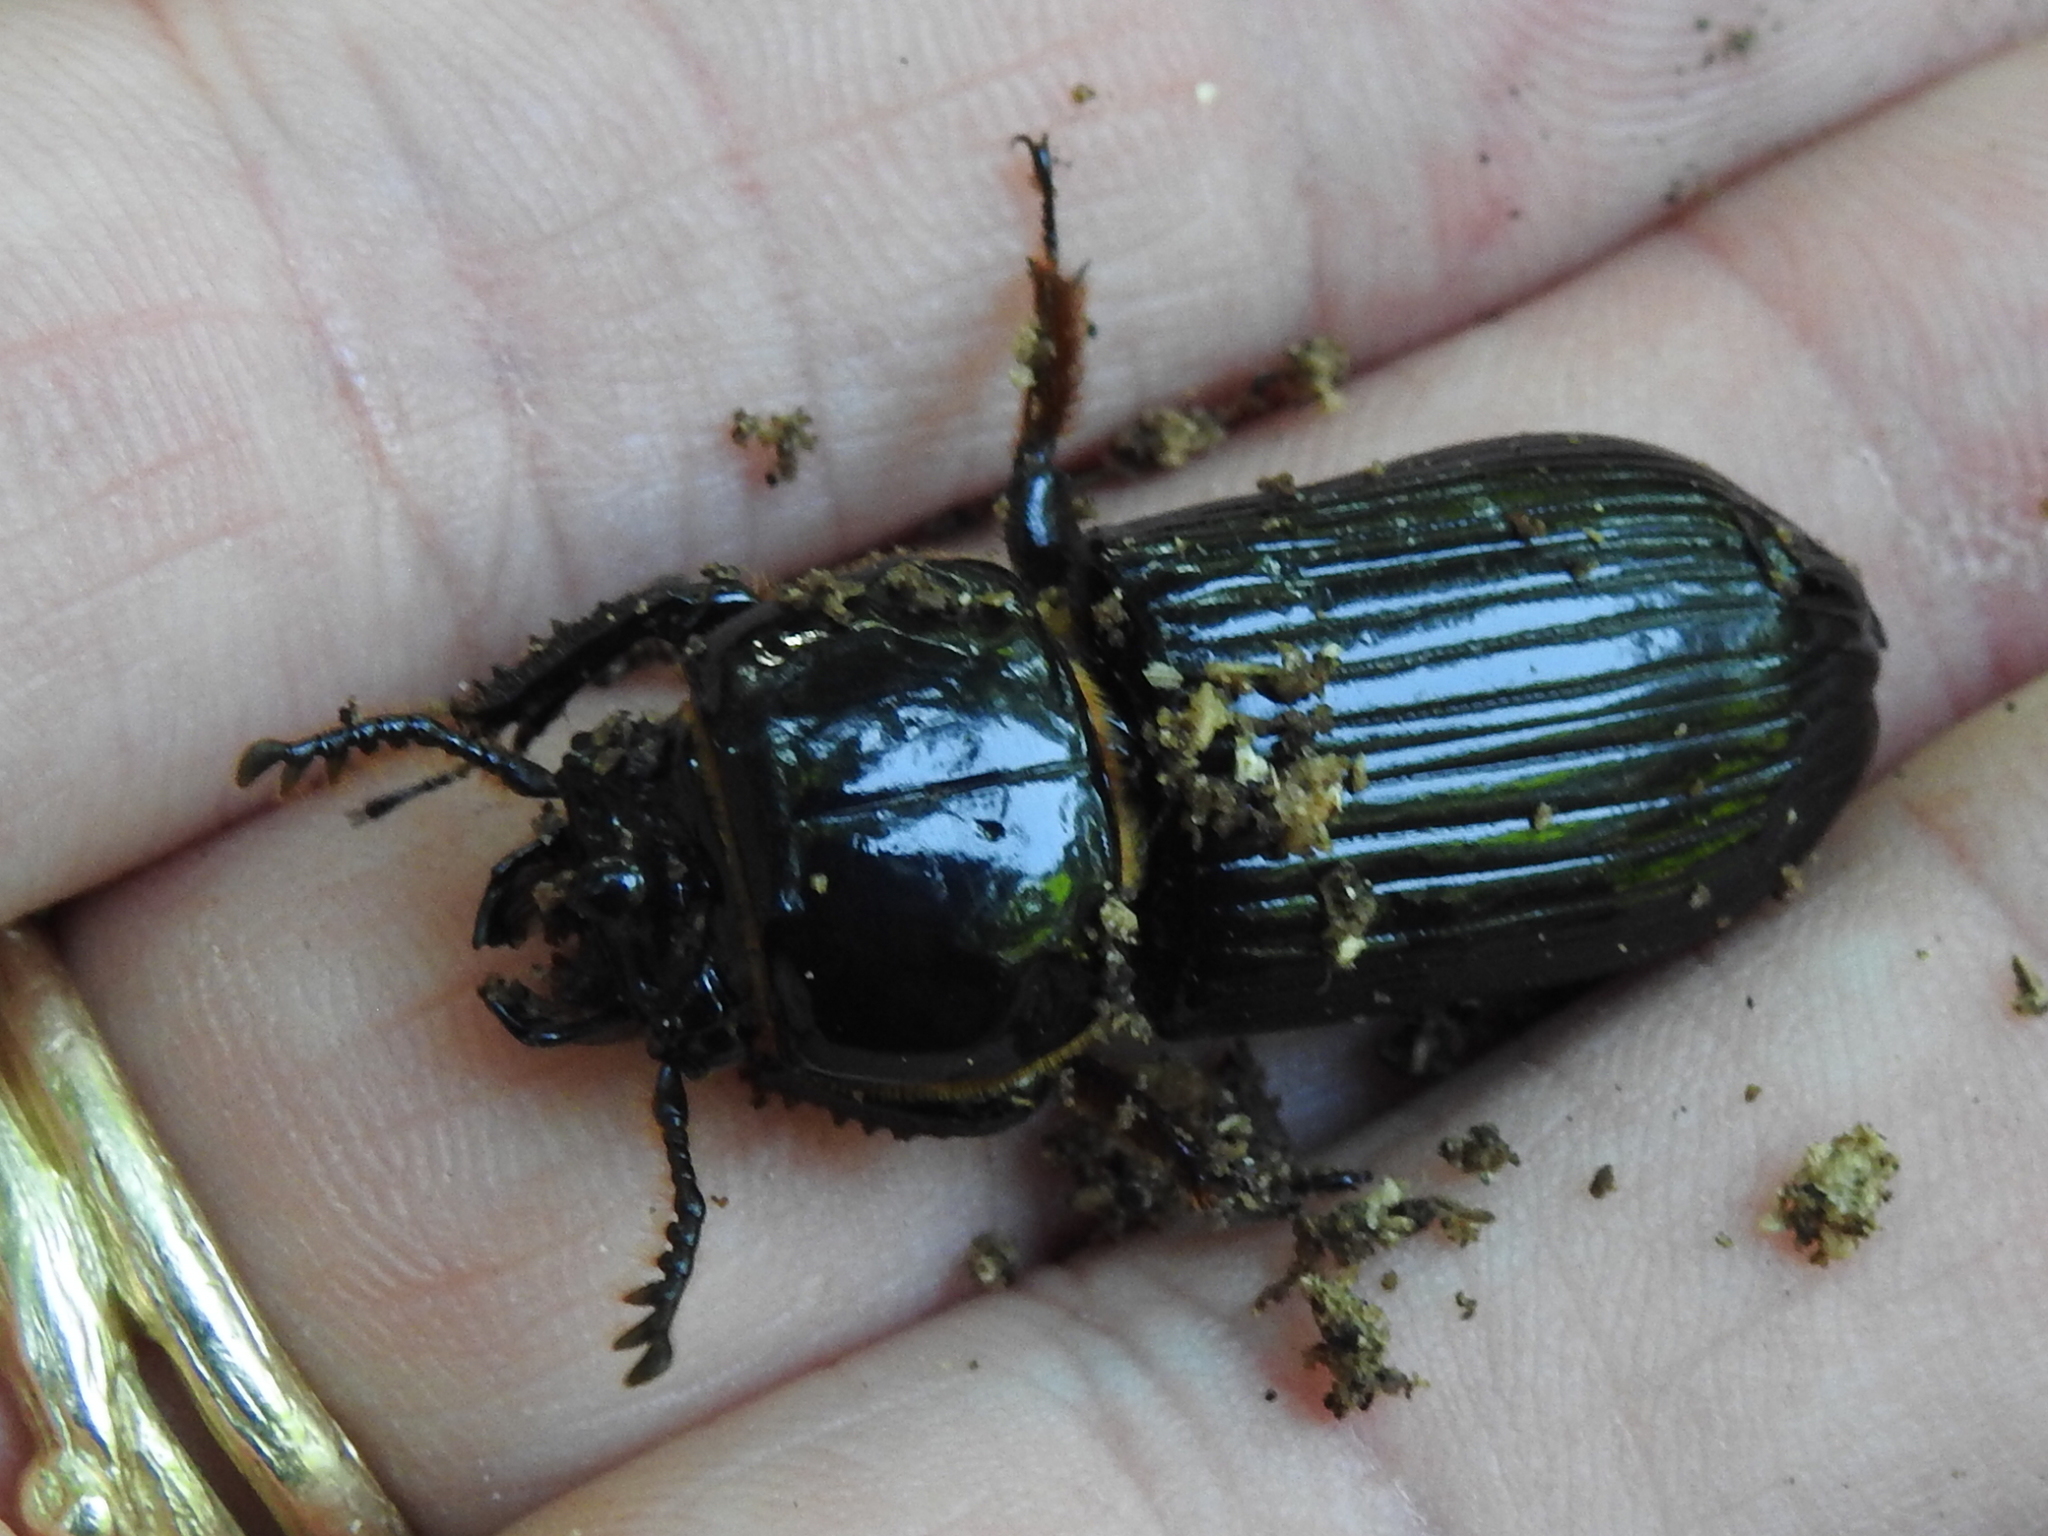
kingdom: Animalia
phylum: Arthropoda
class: Insecta
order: Coleoptera
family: Passalidae
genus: Odontotaenius
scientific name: Odontotaenius disjunctus
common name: Patent leather beetle
